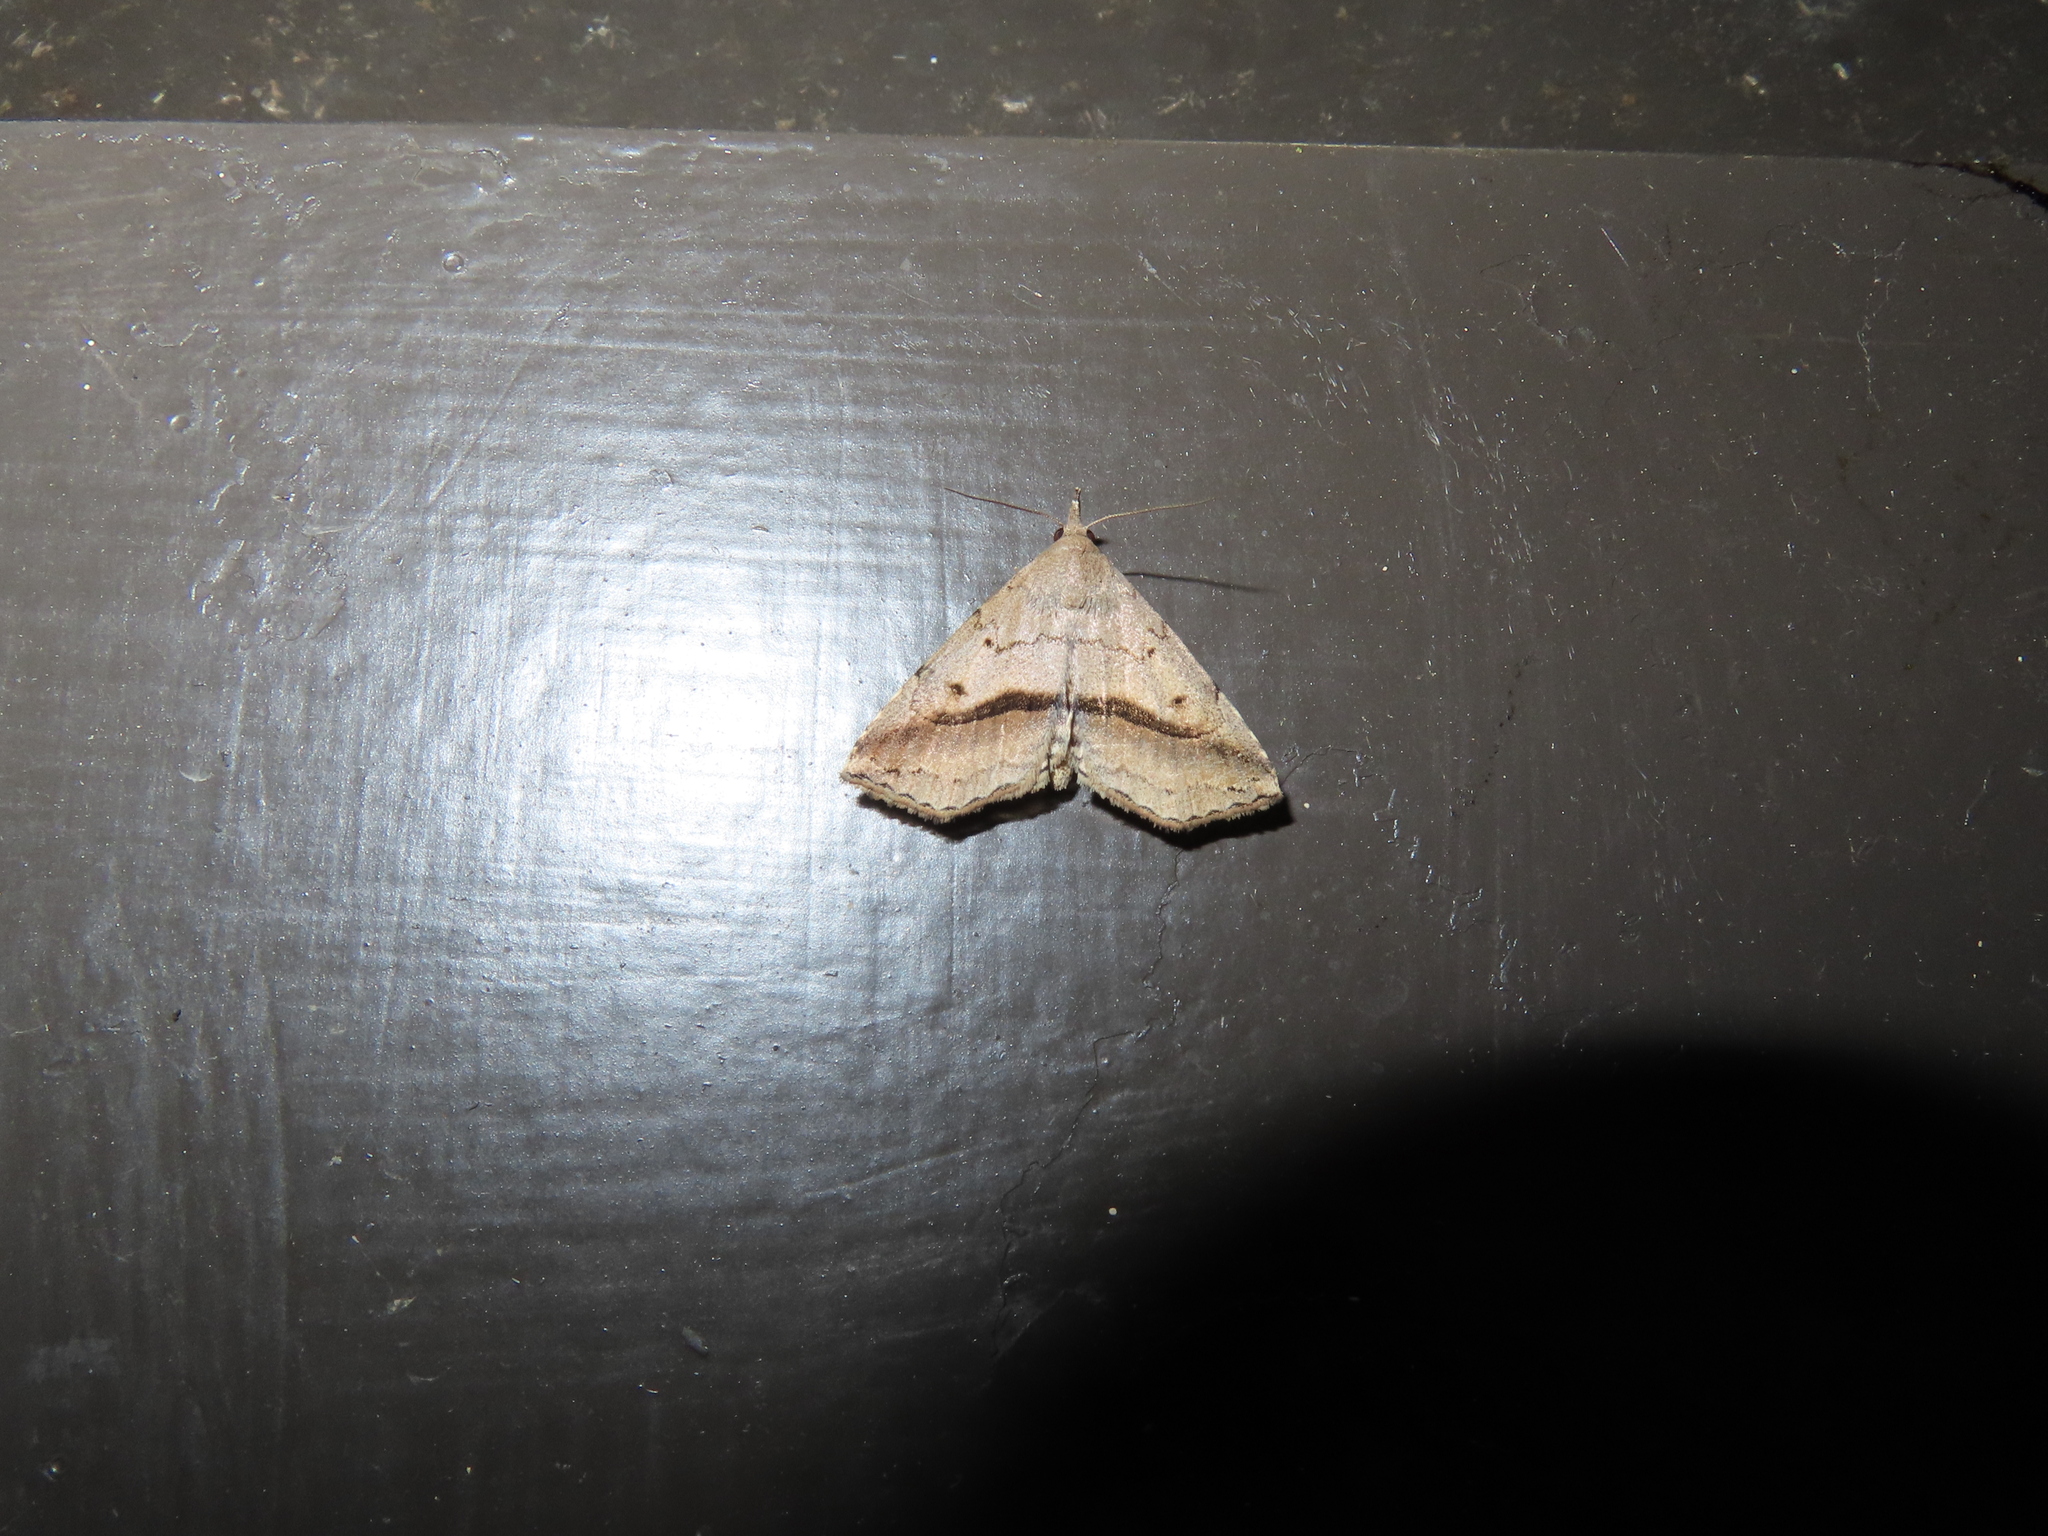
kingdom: Animalia
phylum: Arthropoda
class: Insecta
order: Lepidoptera
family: Erebidae
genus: Spargaloma
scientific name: Spargaloma perditalis
